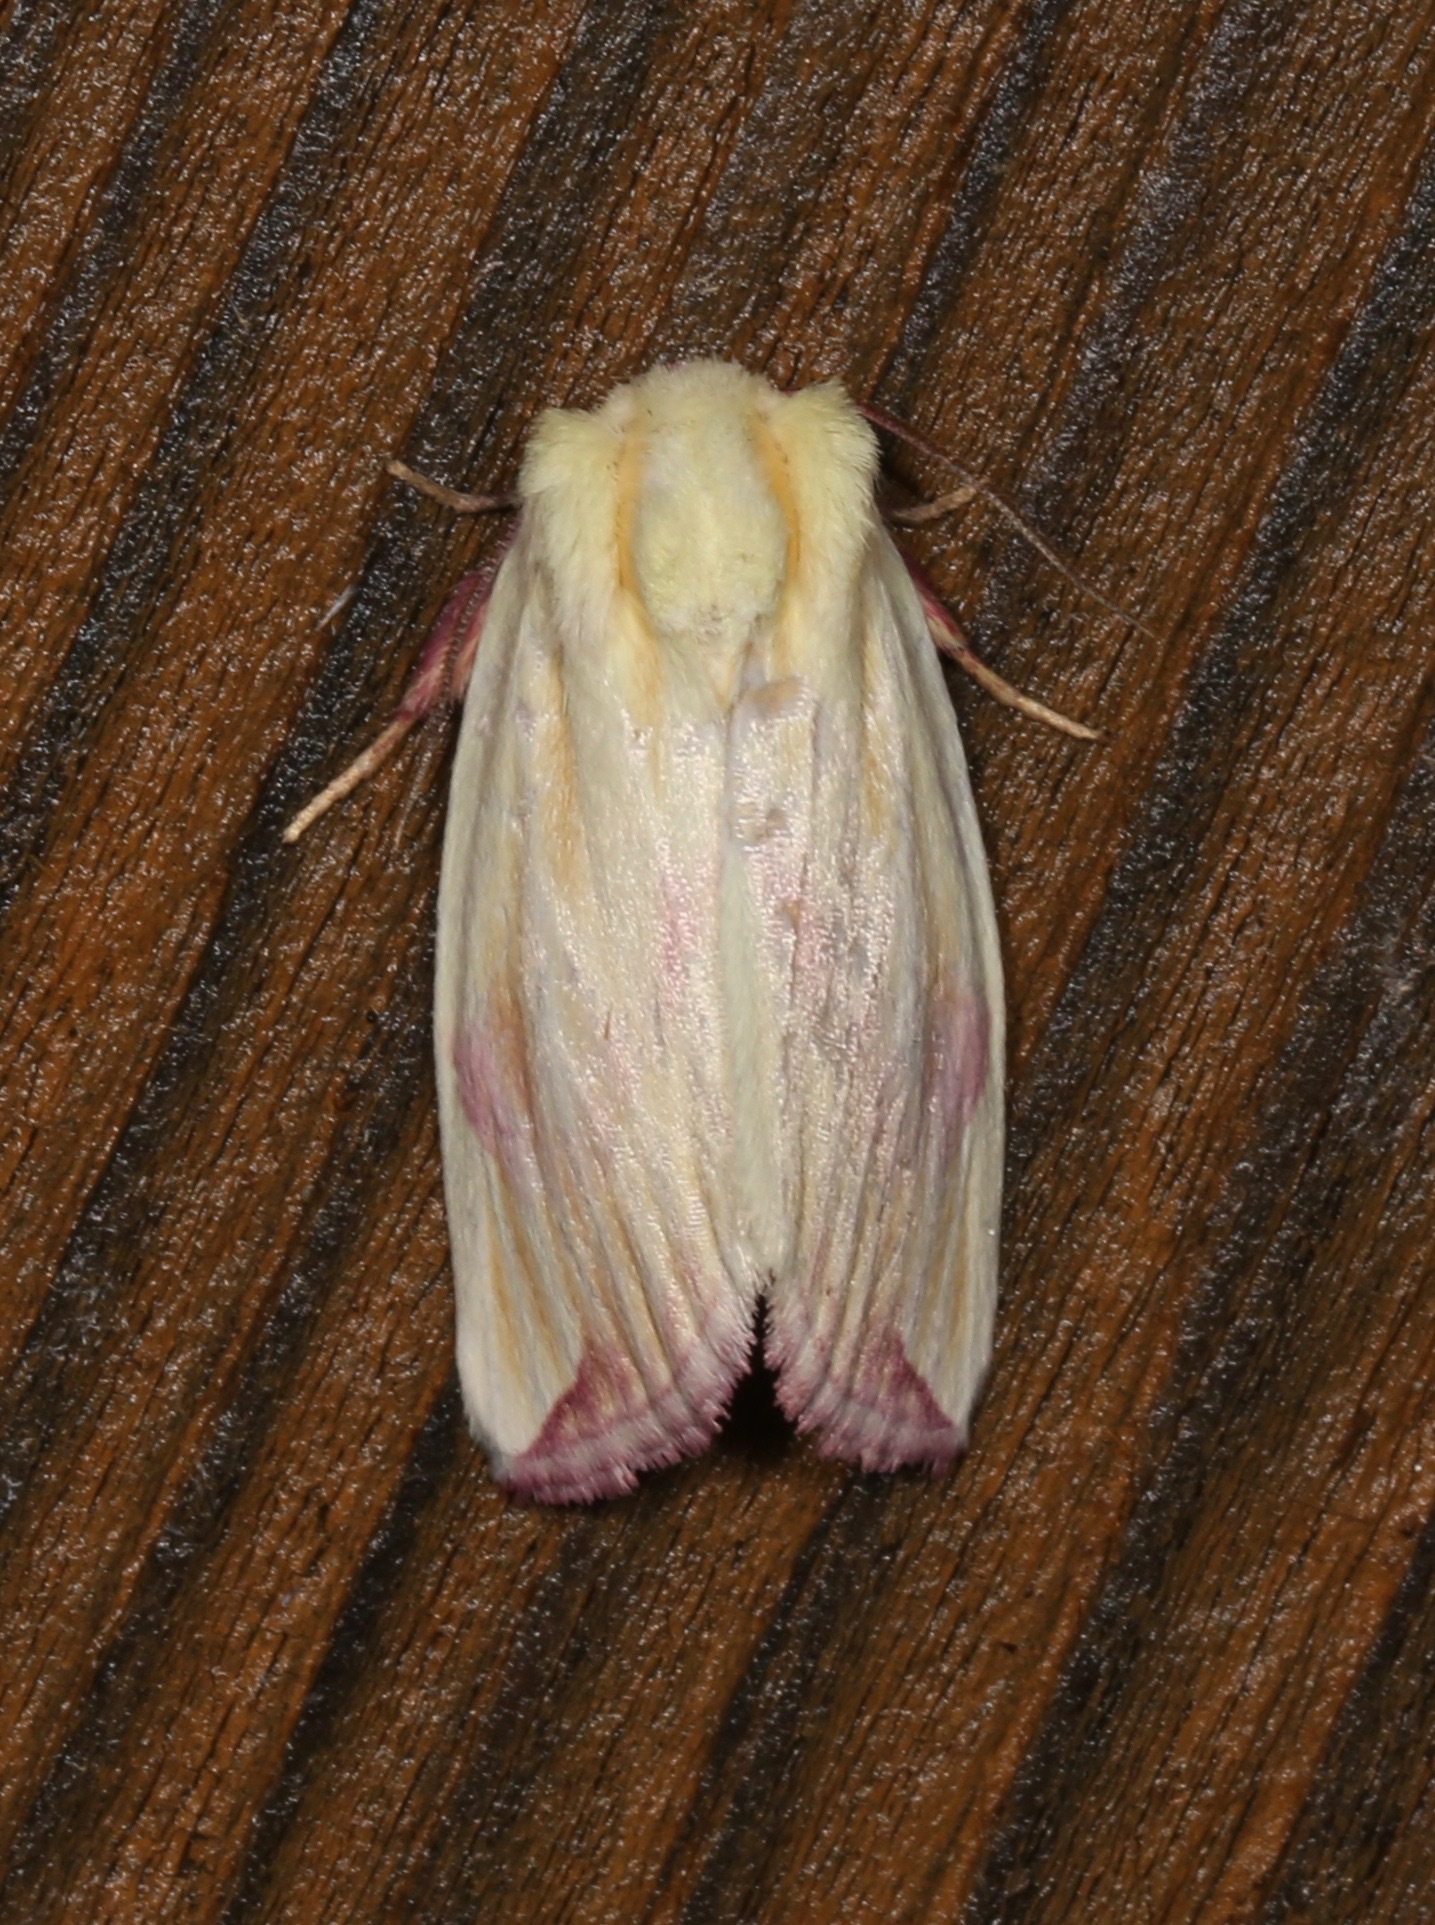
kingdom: Animalia
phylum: Arthropoda
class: Insecta
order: Lepidoptera
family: Noctuidae
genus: Thurberiphaga
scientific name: Thurberiphaga diffusa
